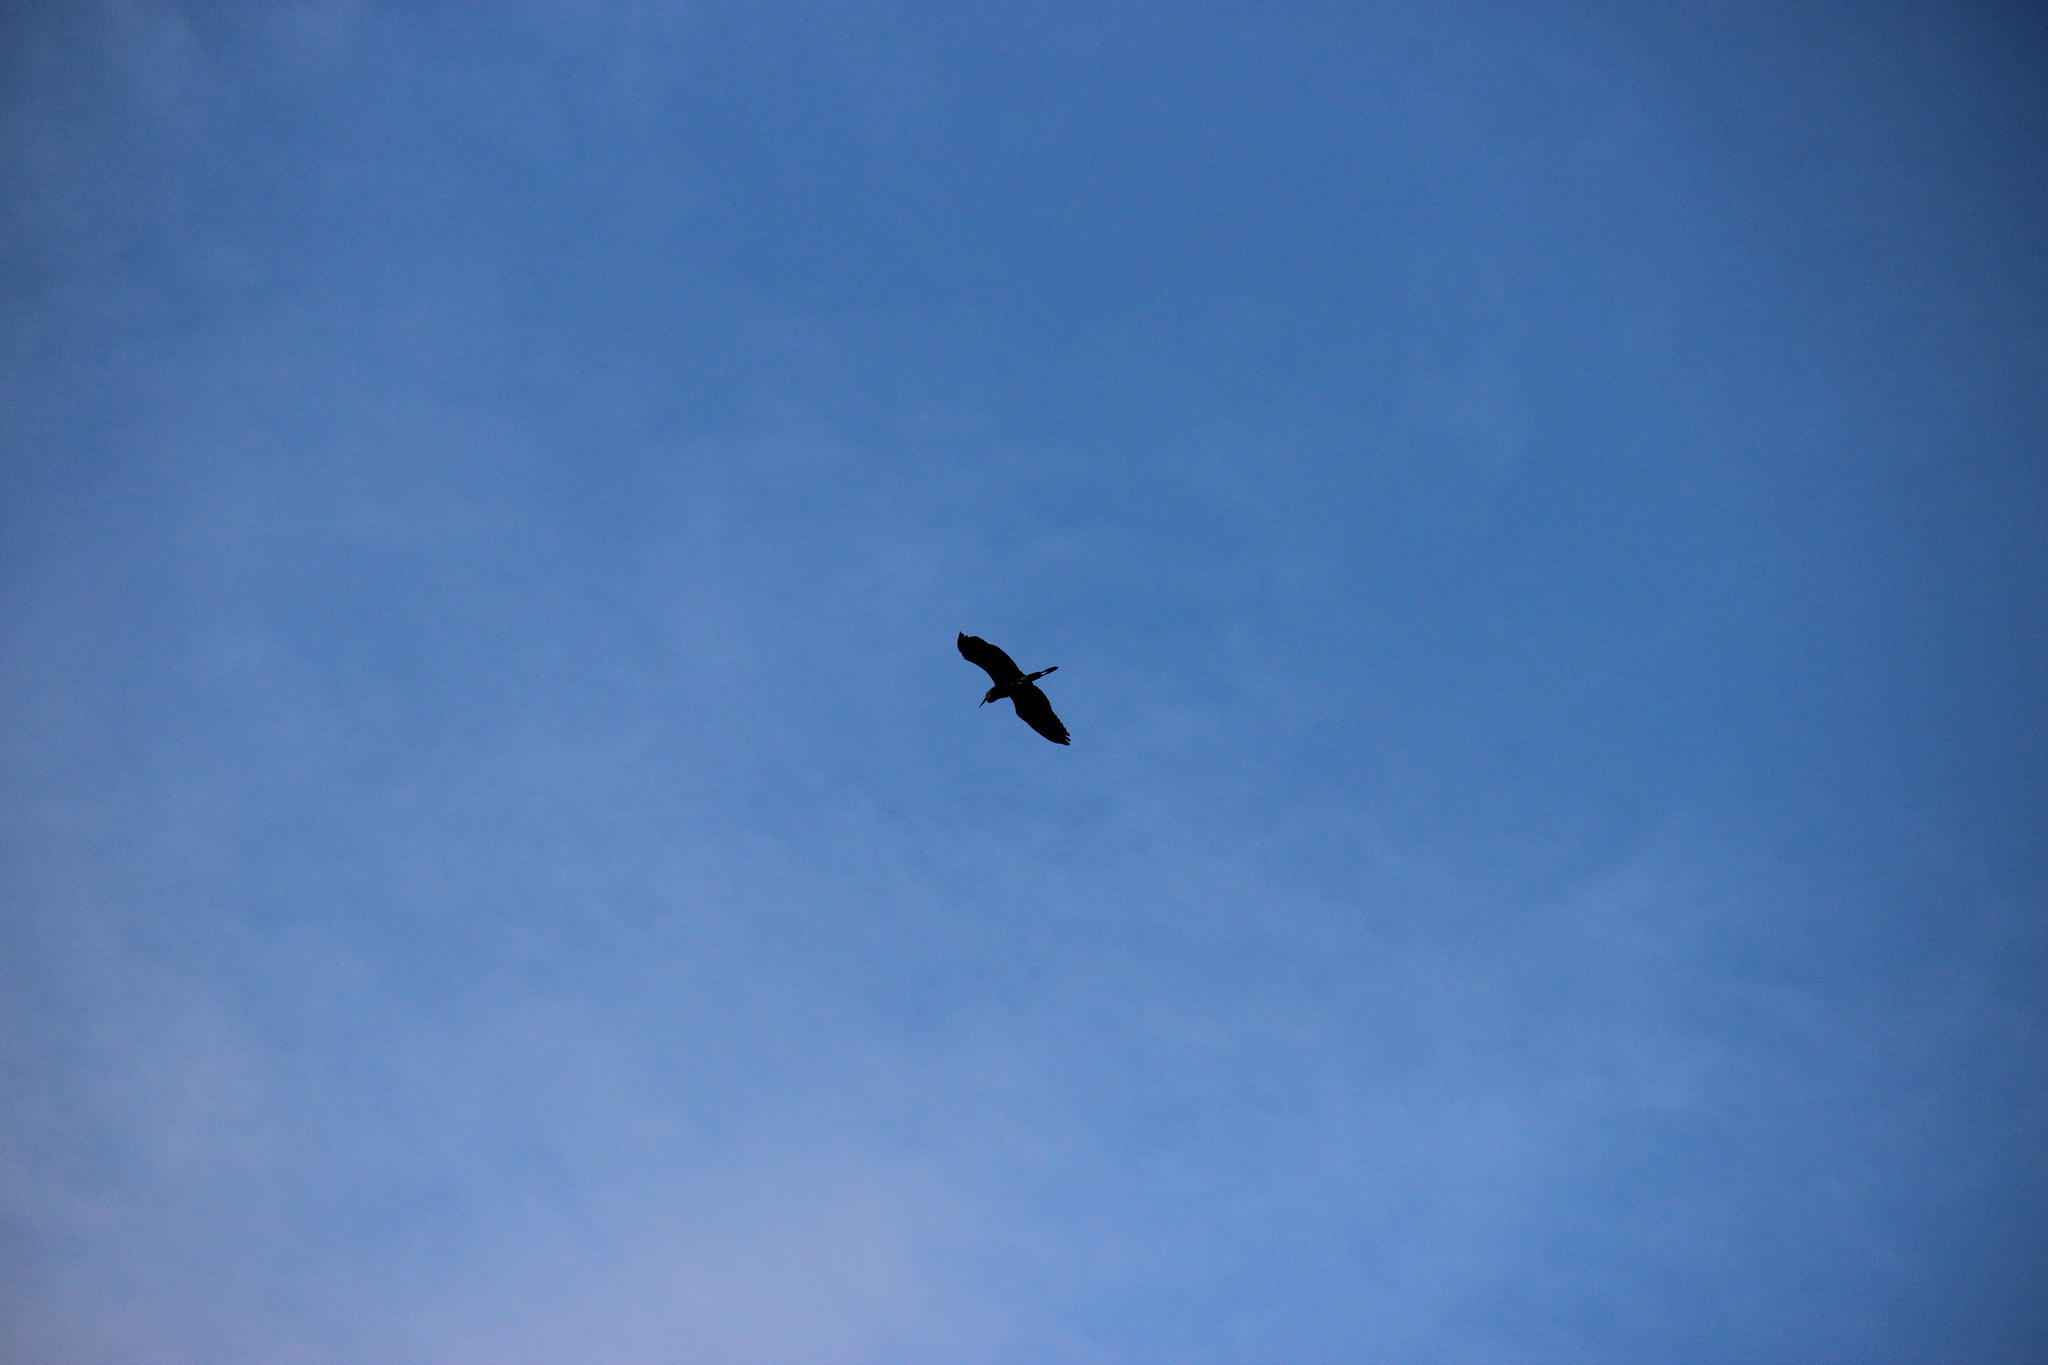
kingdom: Animalia
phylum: Chordata
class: Aves
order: Pelecaniformes
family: Ardeidae
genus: Ardea
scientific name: Ardea cinerea
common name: Grey heron
